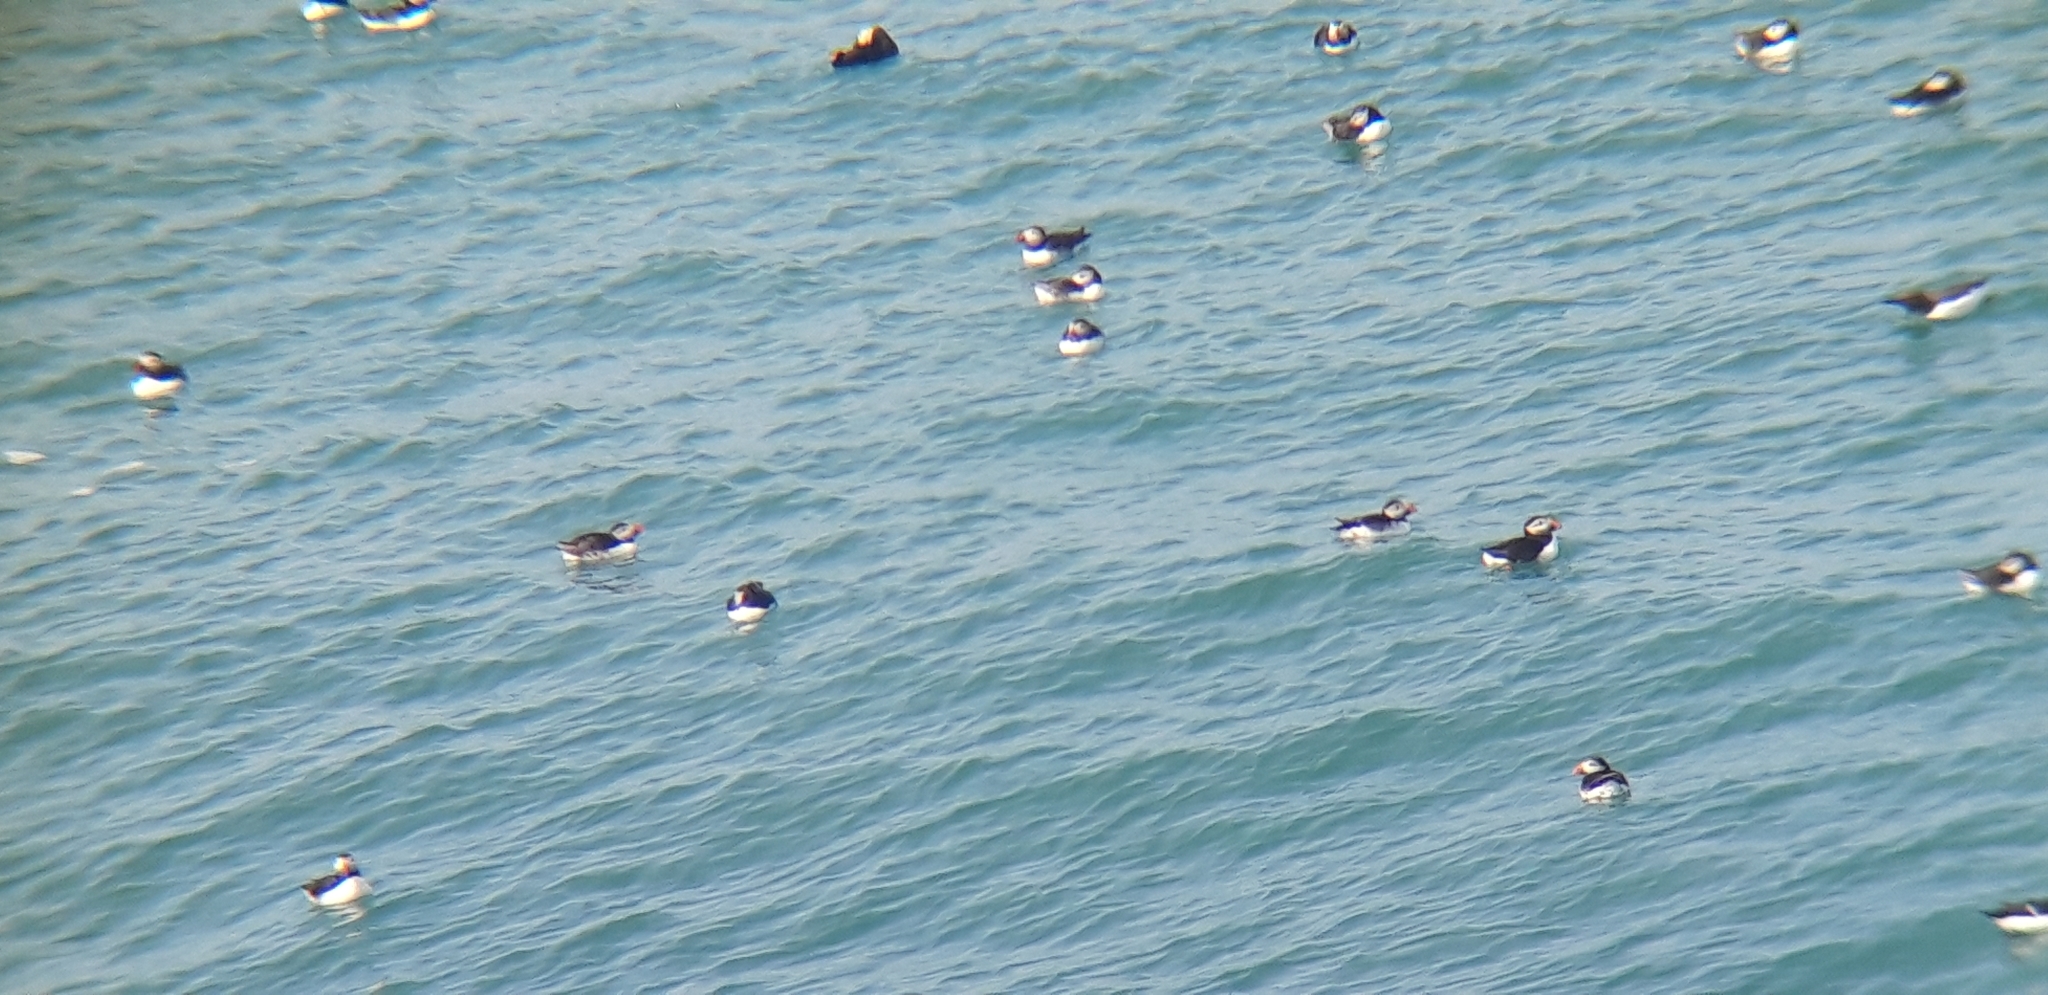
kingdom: Animalia
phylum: Chordata
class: Aves
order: Charadriiformes
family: Alcidae
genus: Fratercula
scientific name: Fratercula arctica
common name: Atlantic puffin
